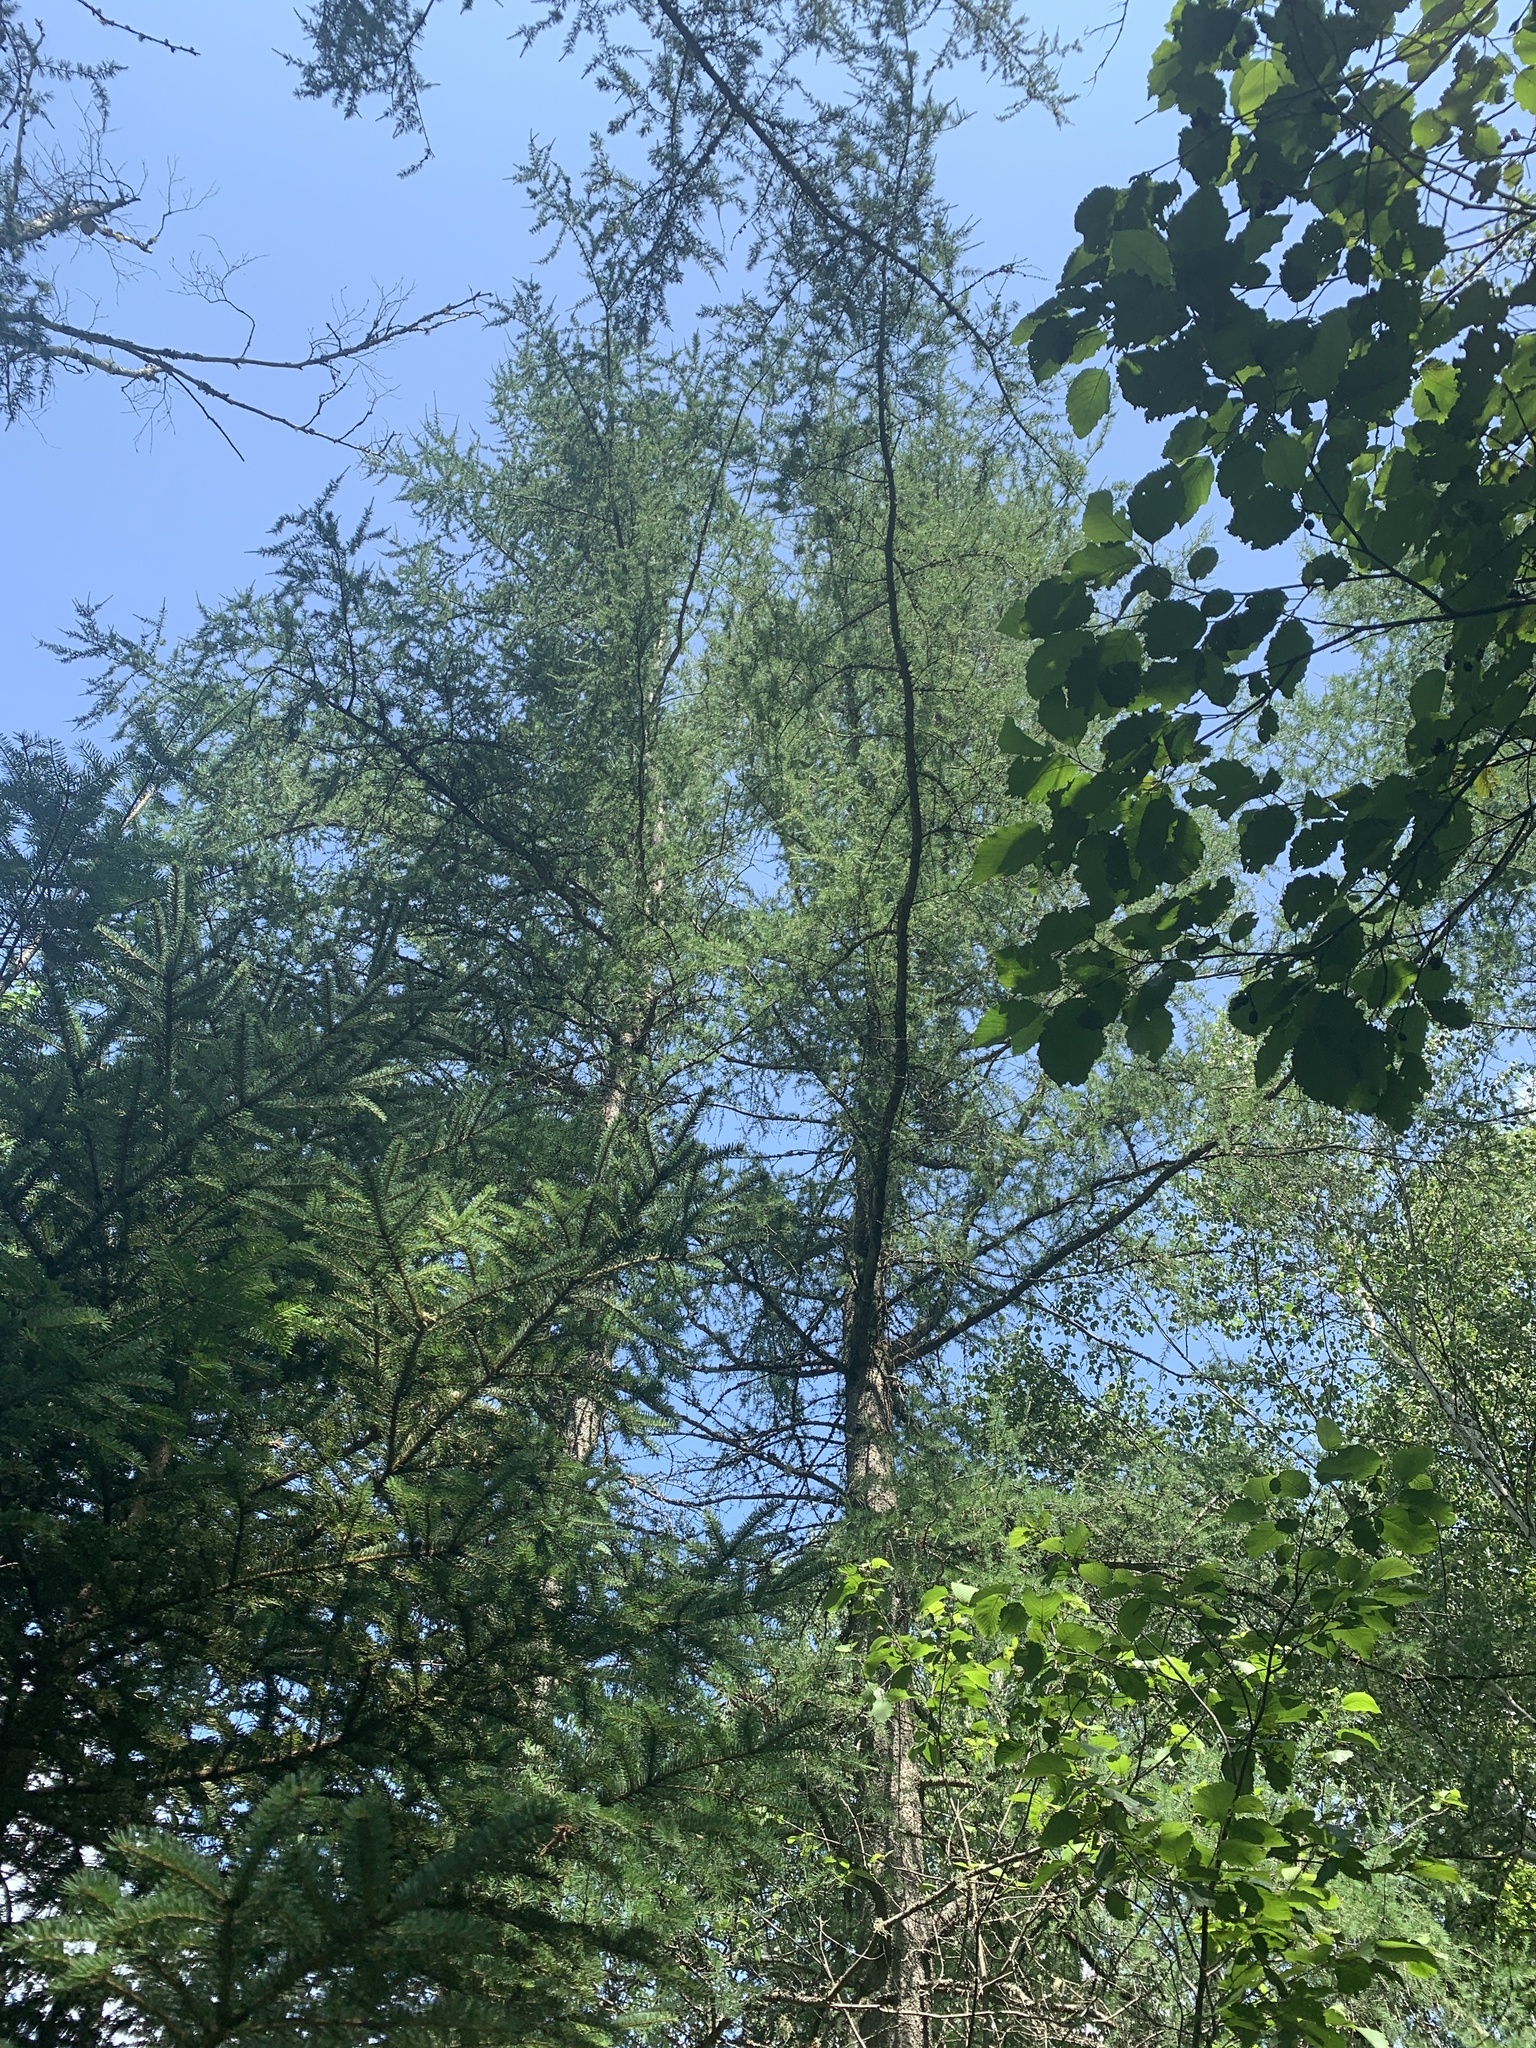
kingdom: Plantae
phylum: Tracheophyta
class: Pinopsida
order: Pinales
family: Pinaceae
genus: Larix
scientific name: Larix laricina
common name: American larch
